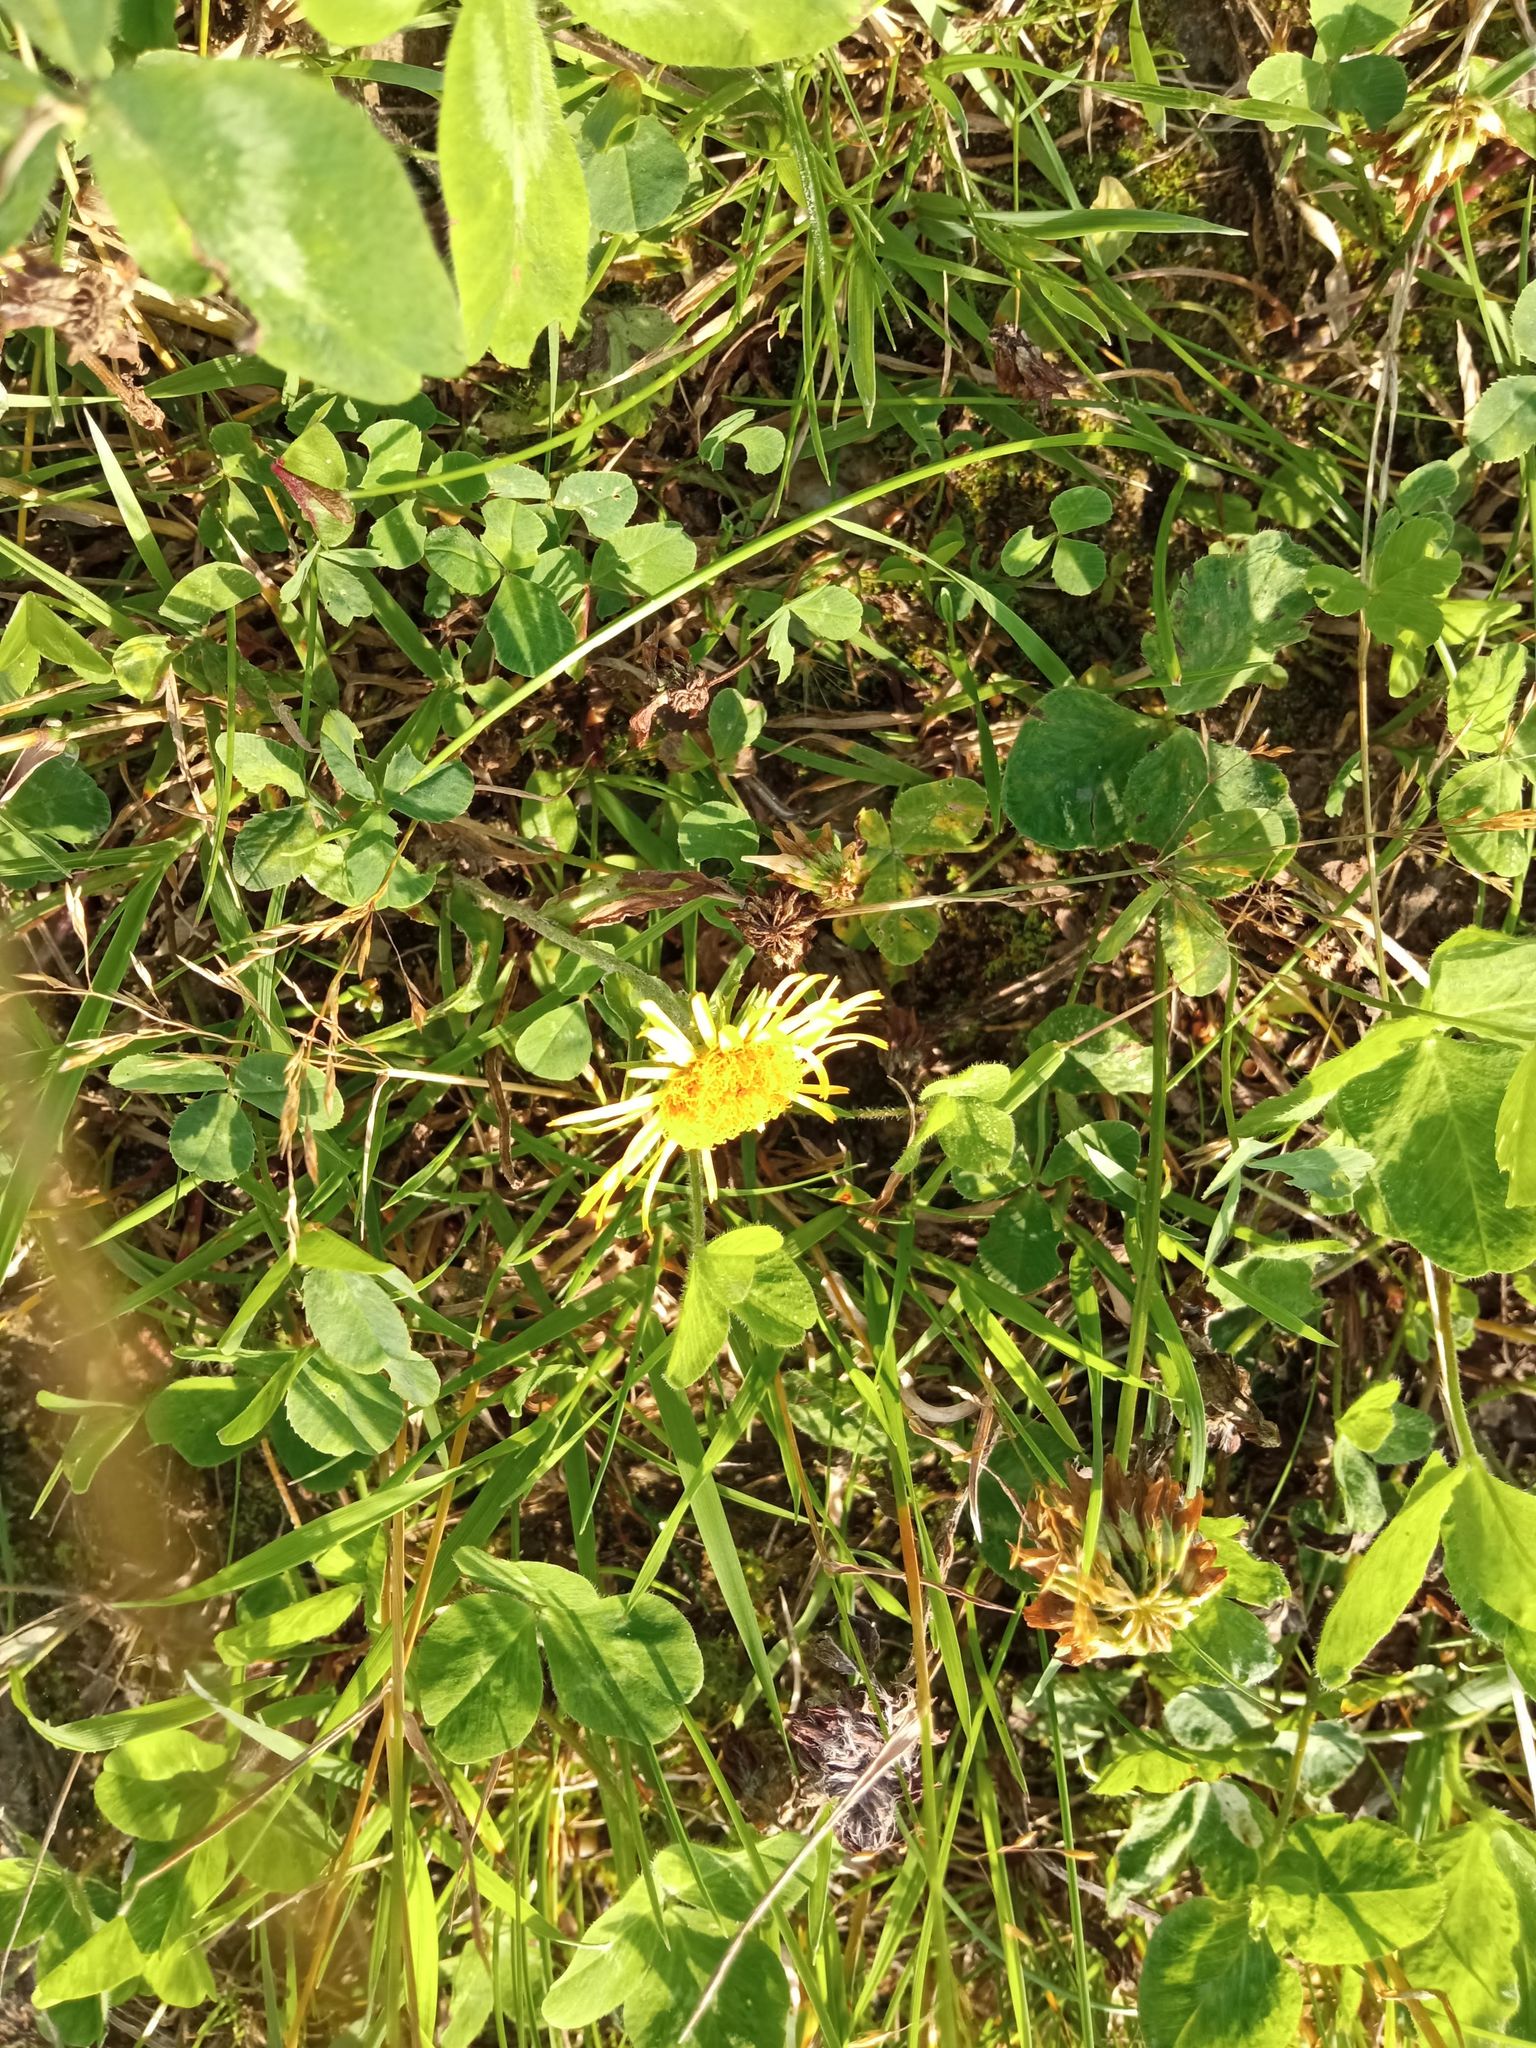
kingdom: Plantae
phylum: Tracheophyta
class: Magnoliopsida
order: Asterales
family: Asteraceae
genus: Pentanema
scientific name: Pentanema britannicum
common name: British elecampane
